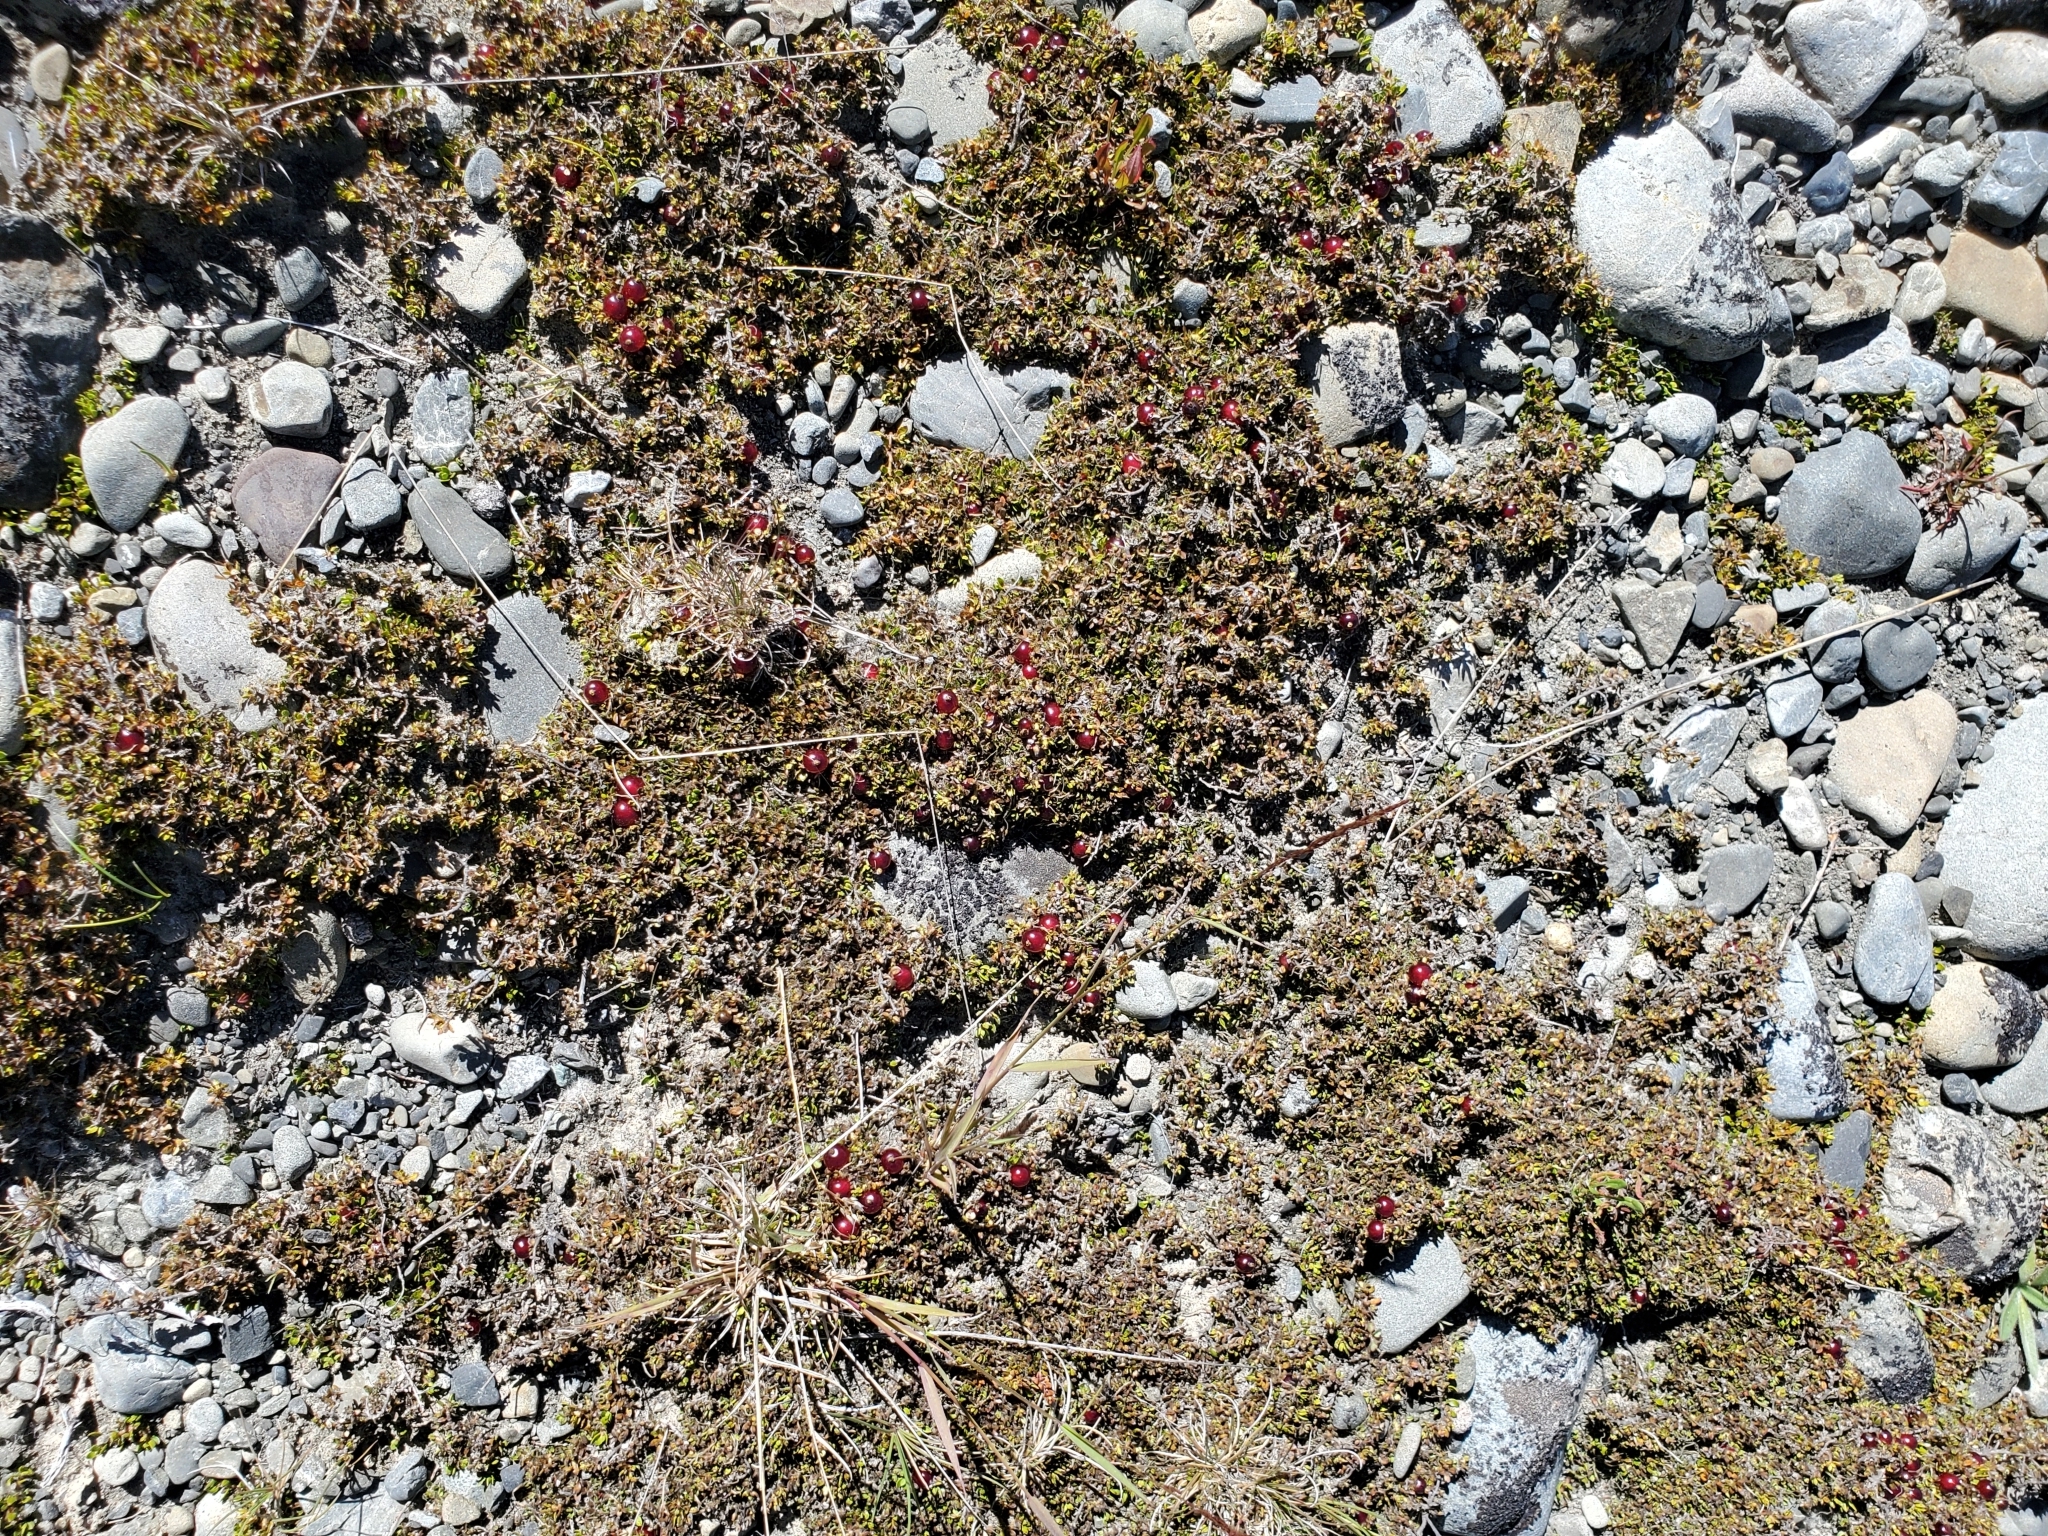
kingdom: Plantae
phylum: Tracheophyta
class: Magnoliopsida
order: Gentianales
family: Rubiaceae
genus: Coprosma
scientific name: Coprosma atropurpurea
